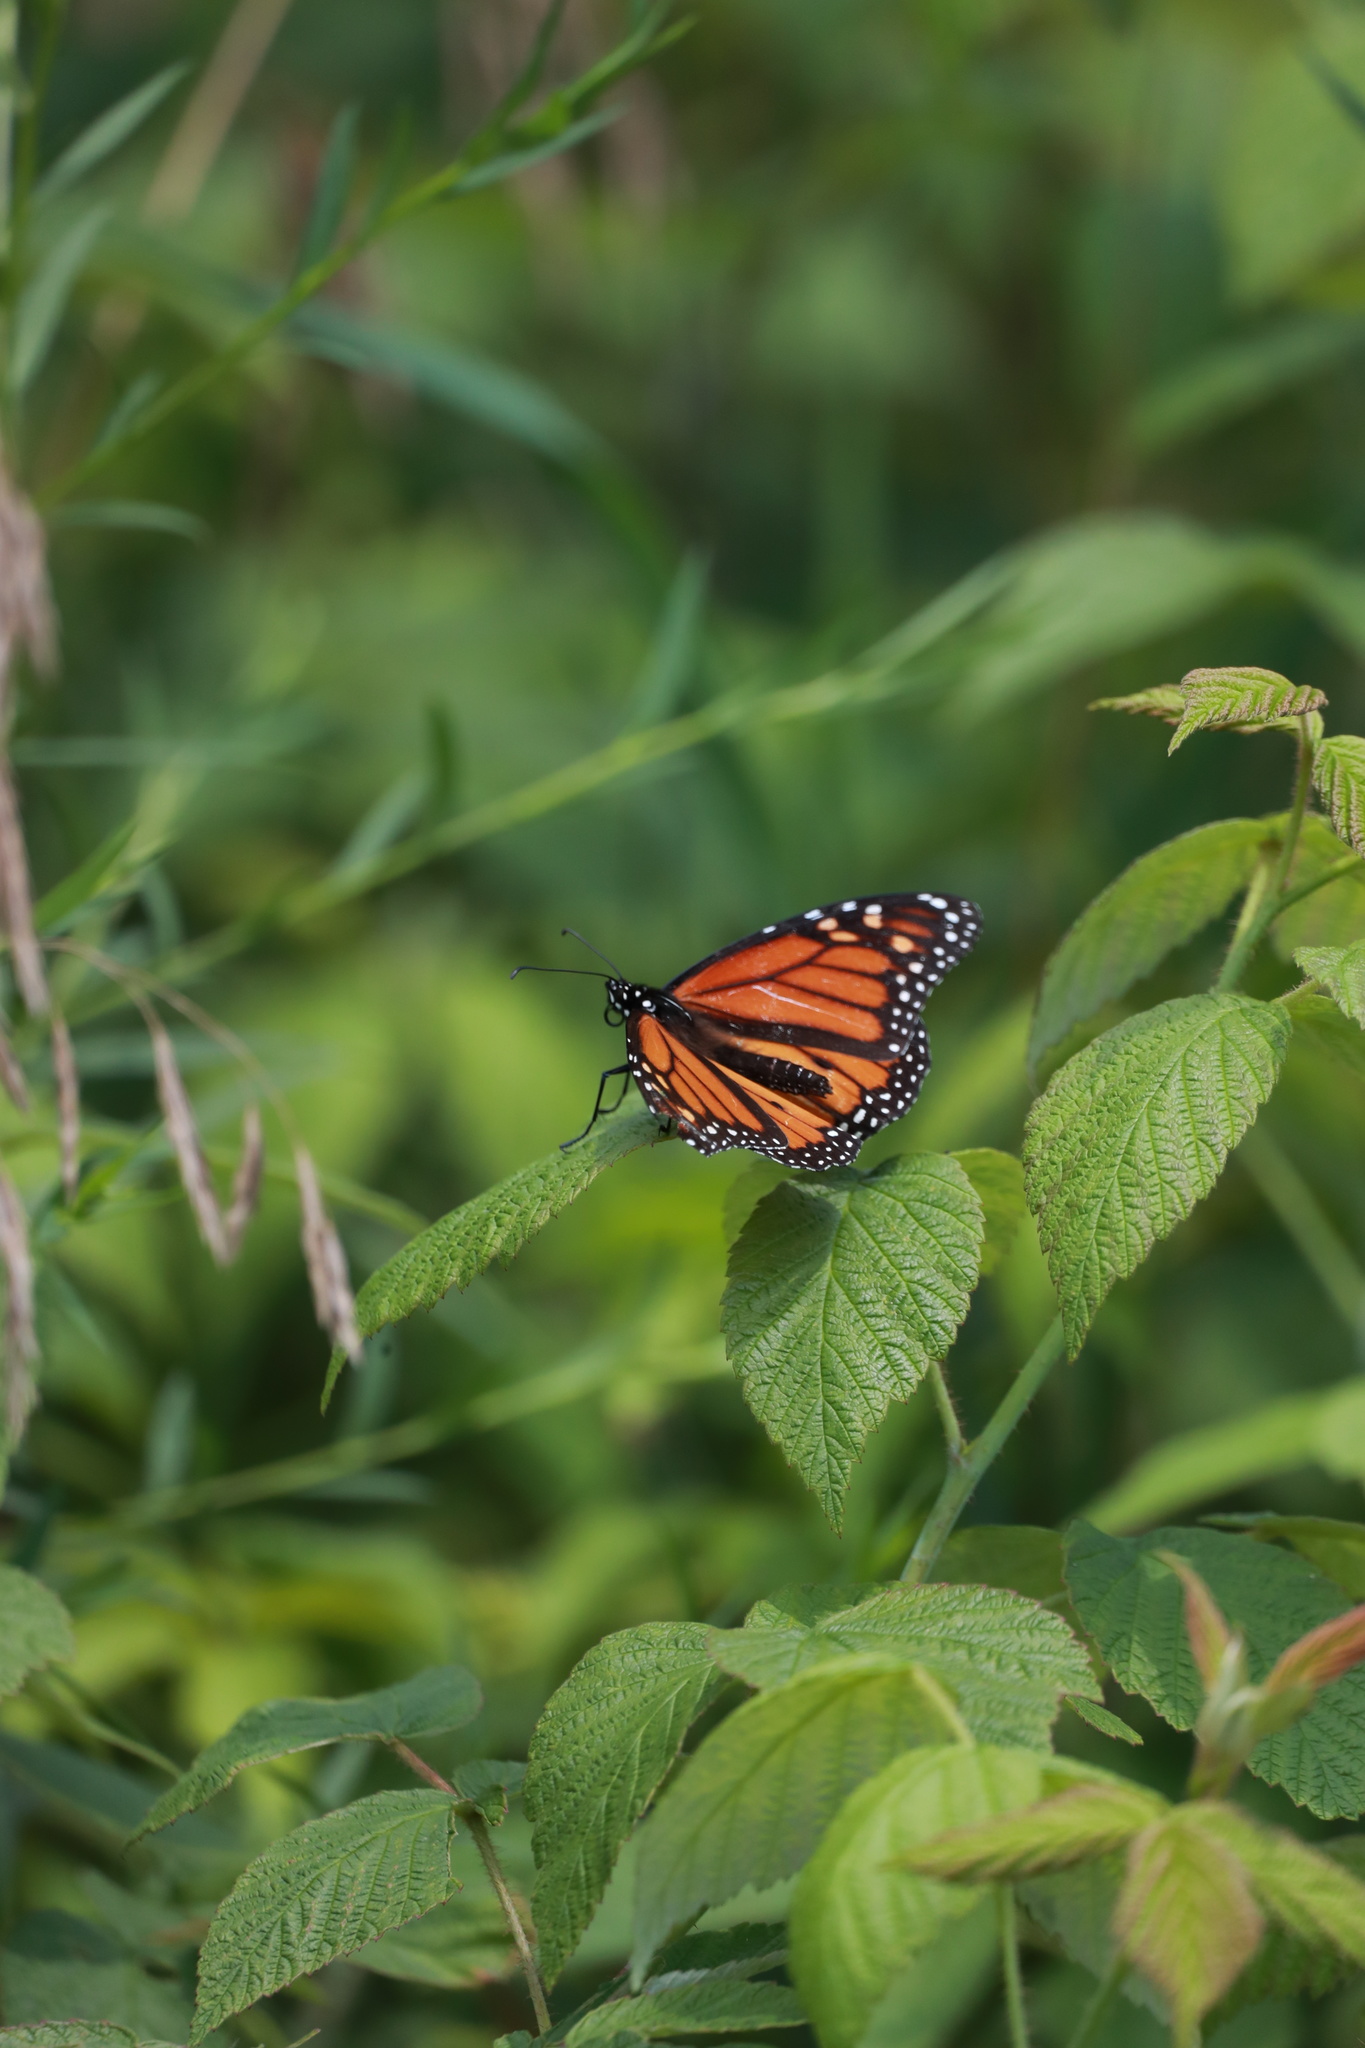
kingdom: Animalia
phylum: Arthropoda
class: Insecta
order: Lepidoptera
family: Nymphalidae
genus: Danaus
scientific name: Danaus plexippus
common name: Monarch
